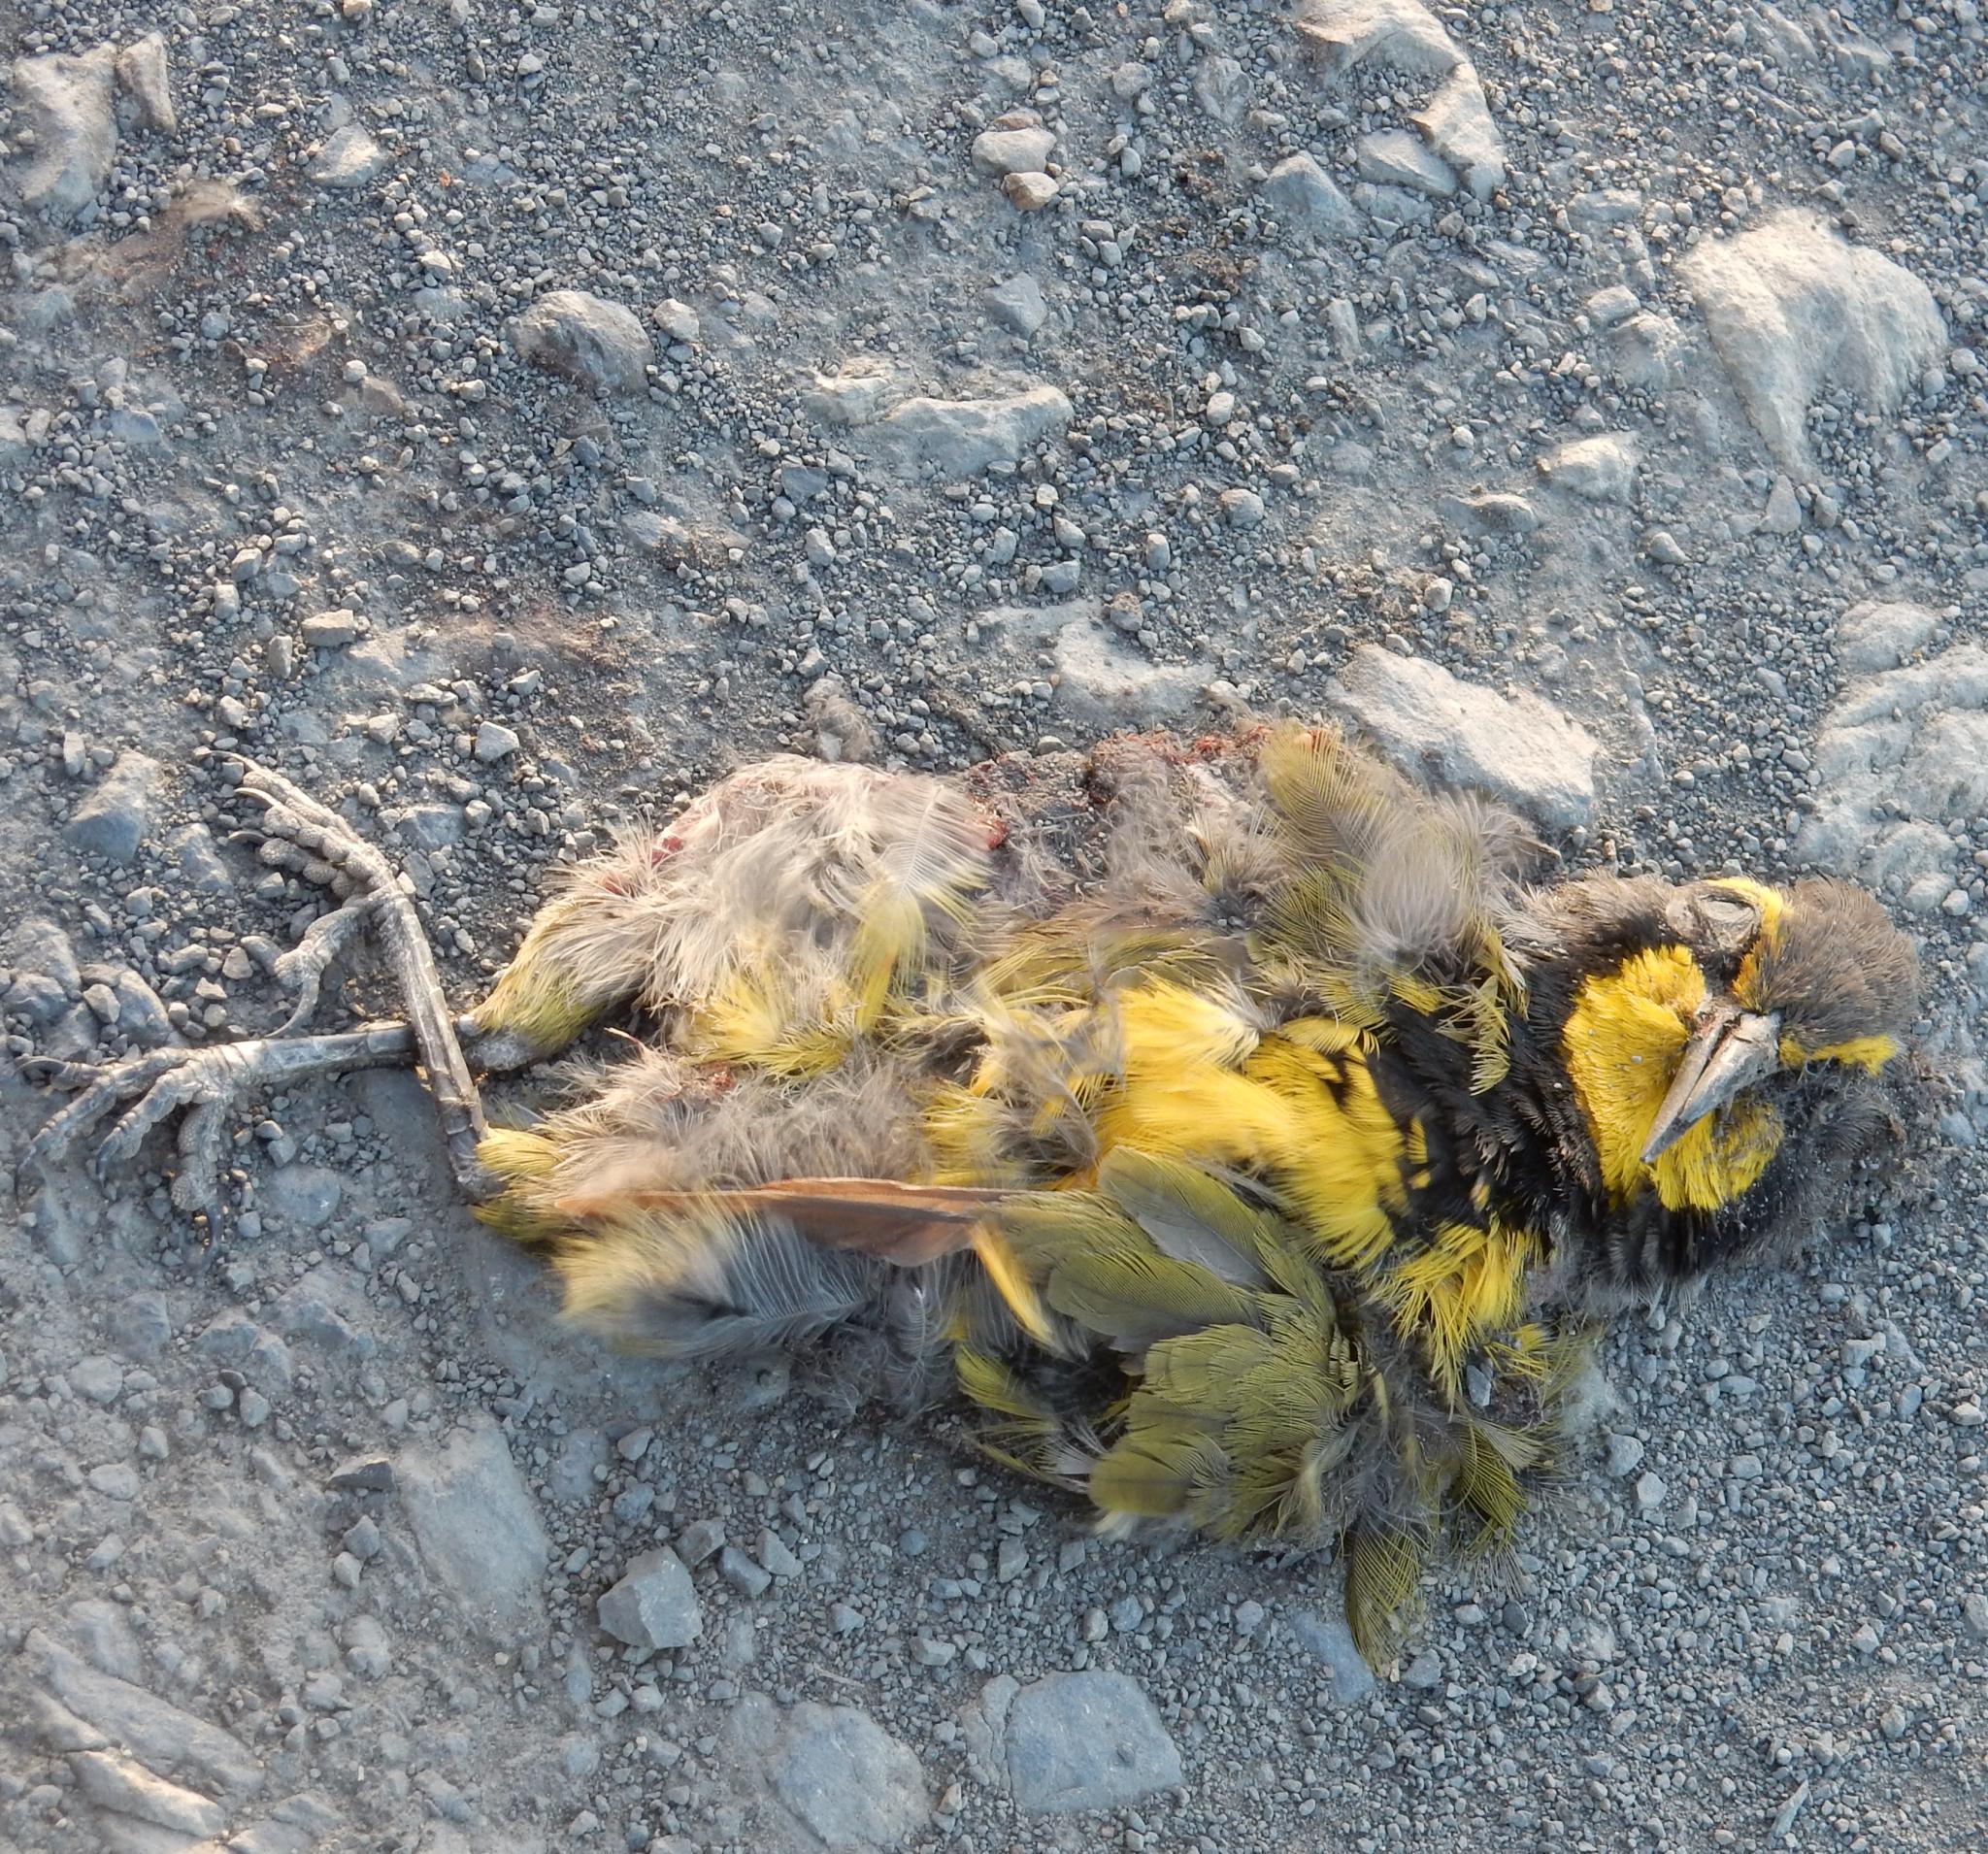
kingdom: Animalia
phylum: Chordata
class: Aves
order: Passeriformes
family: Malaconotidae
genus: Telophorus
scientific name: Telophorus zeylonus
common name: Bokmakierie
